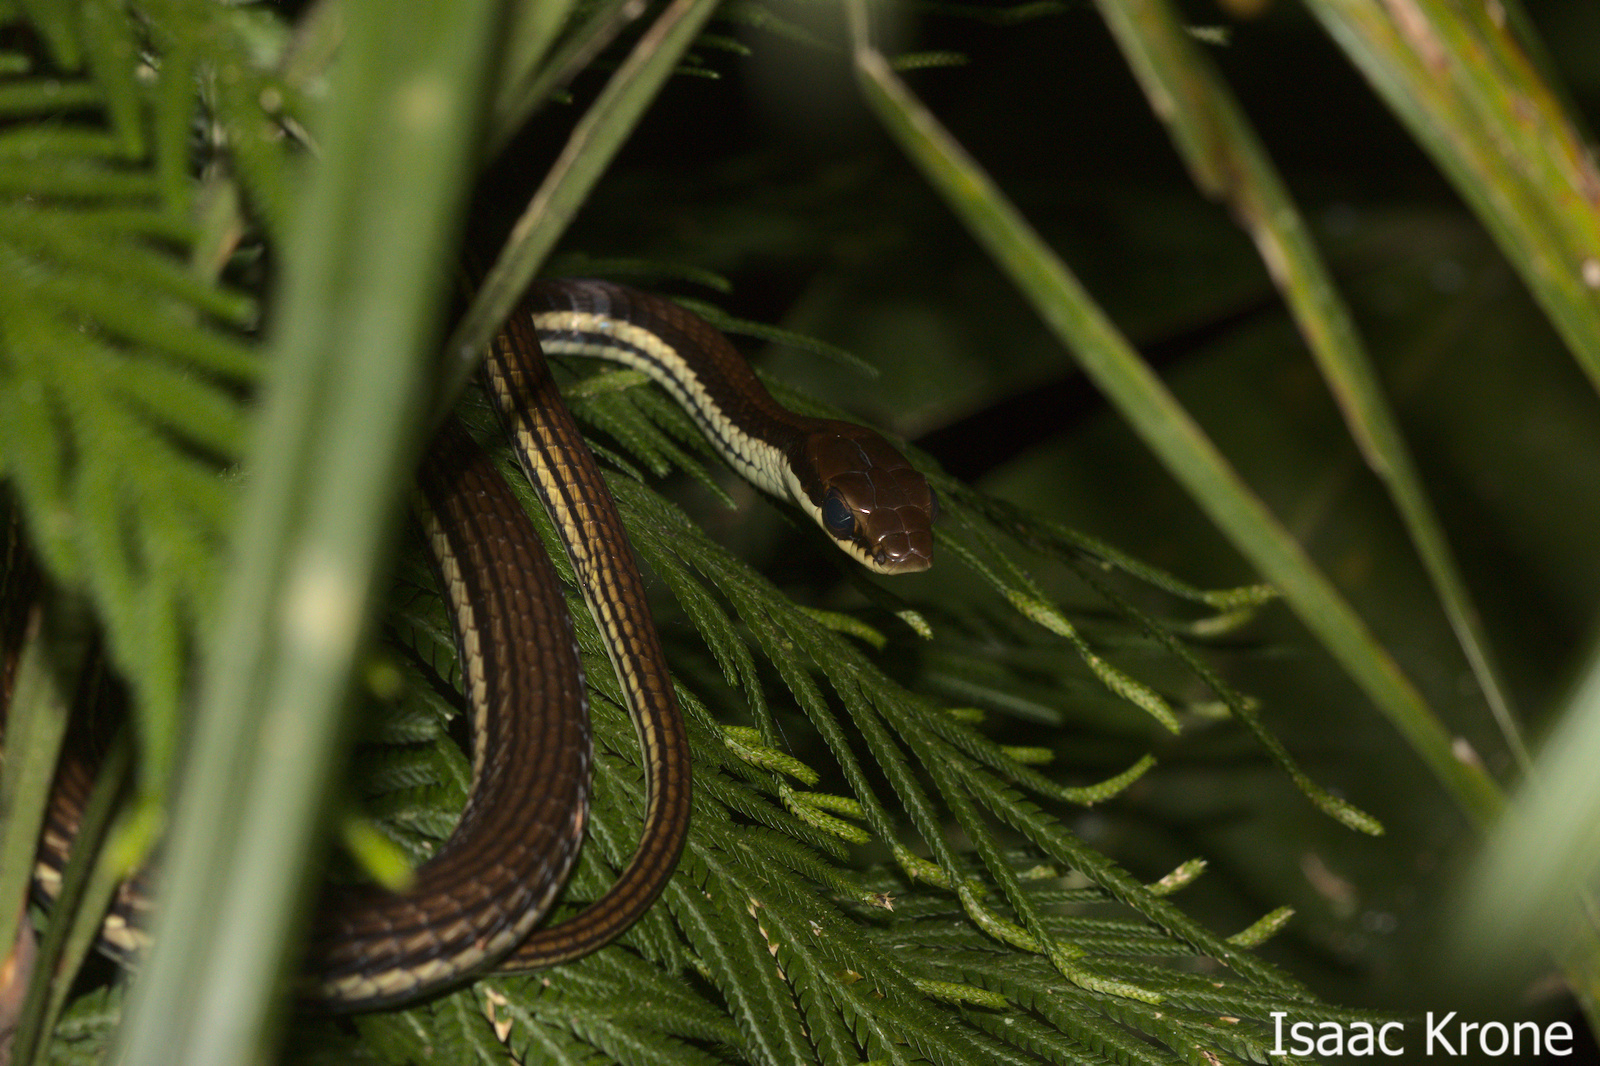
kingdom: Animalia
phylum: Chordata
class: Squamata
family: Colubridae
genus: Dendrelaphis
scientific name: Dendrelaphis terrificus
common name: Terrific bronzeback
